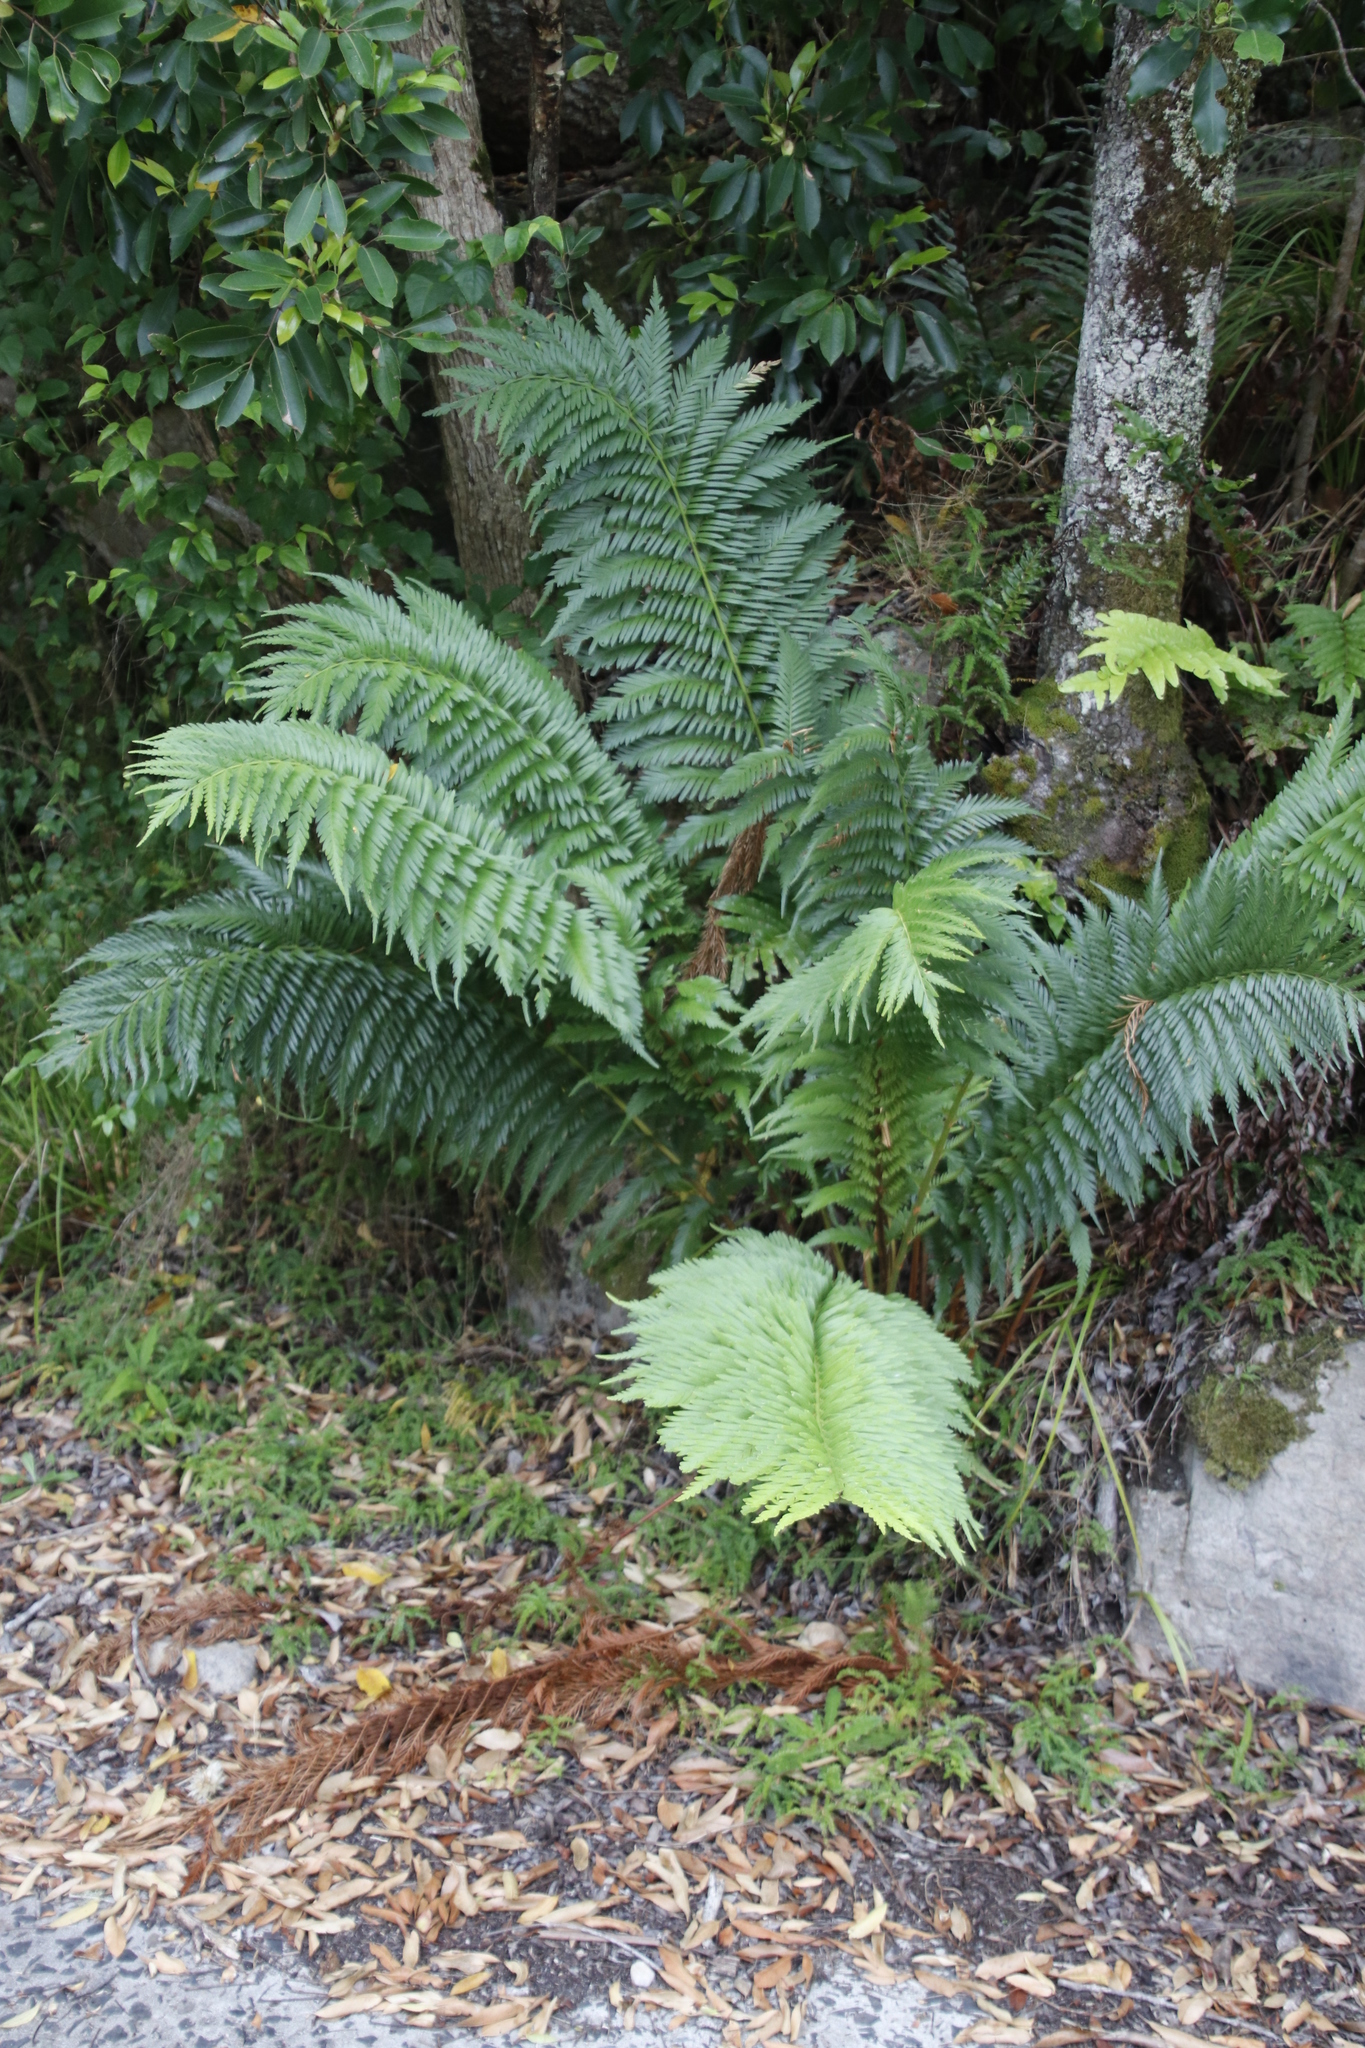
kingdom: Plantae
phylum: Tracheophyta
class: Polypodiopsida
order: Osmundales
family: Osmundaceae
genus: Todea
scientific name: Todea barbara
